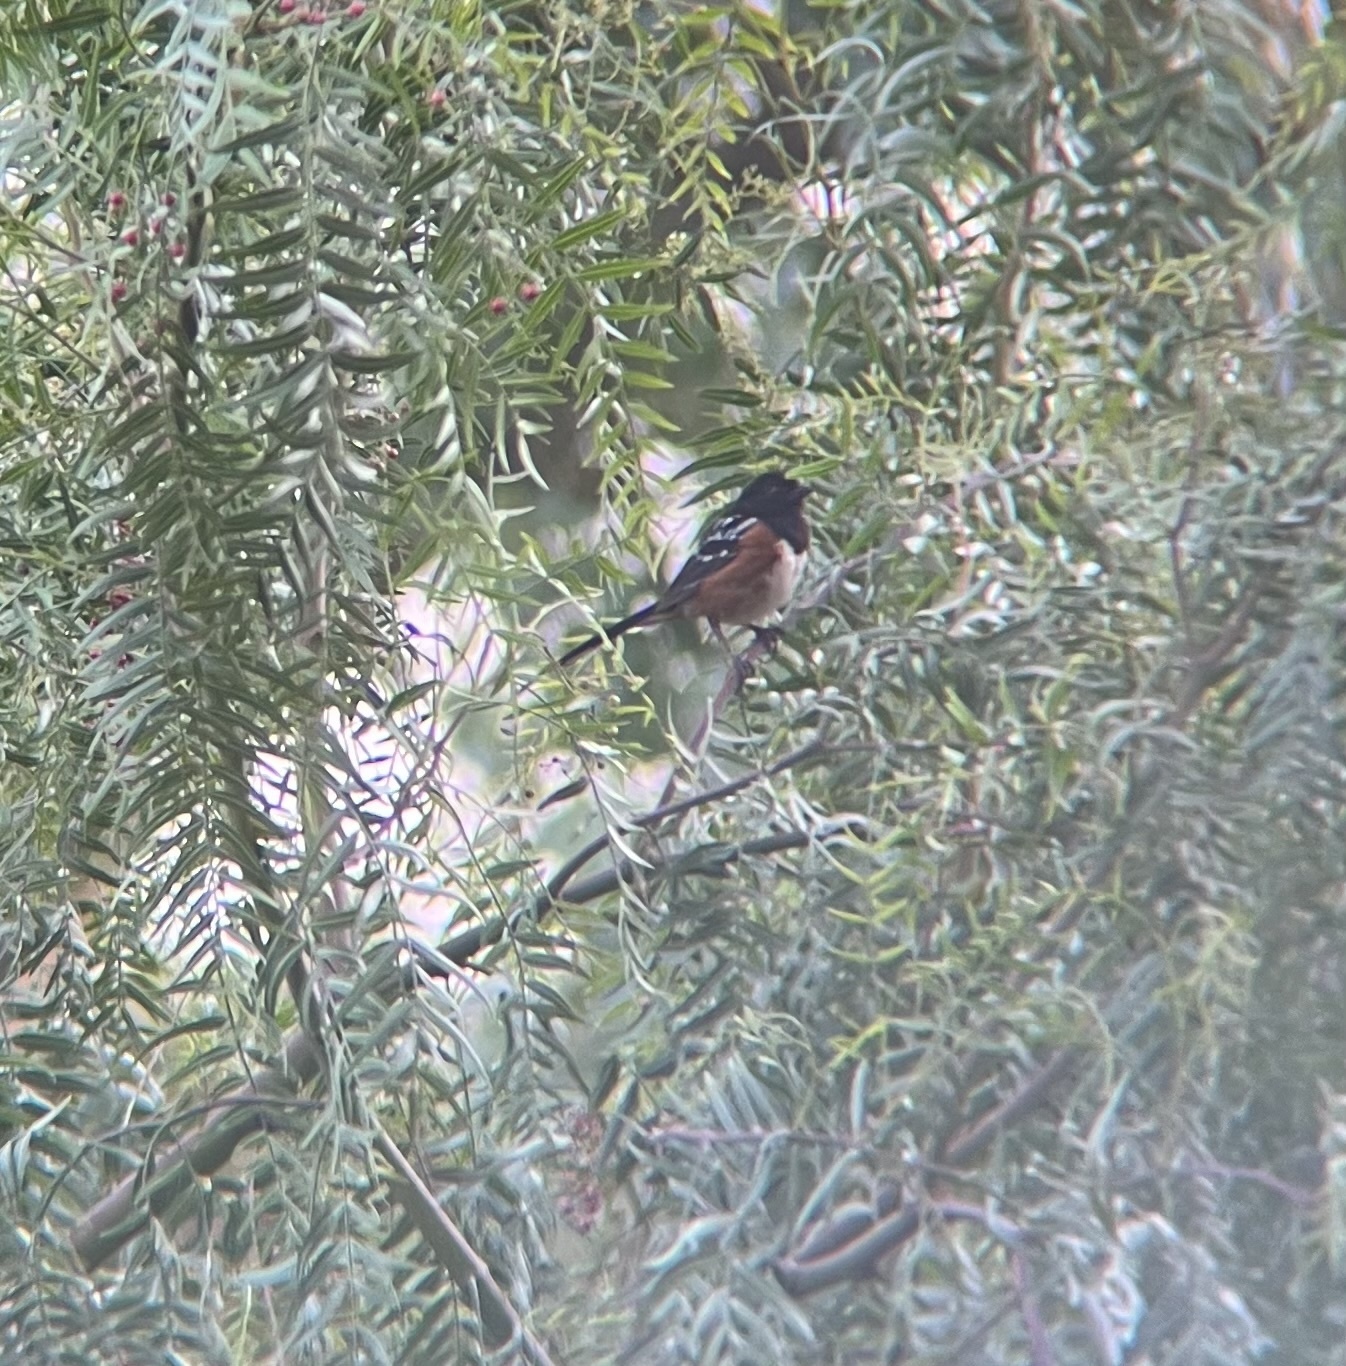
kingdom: Animalia
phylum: Chordata
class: Aves
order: Passeriformes
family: Passerellidae
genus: Pipilo
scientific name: Pipilo maculatus
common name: Spotted towhee
